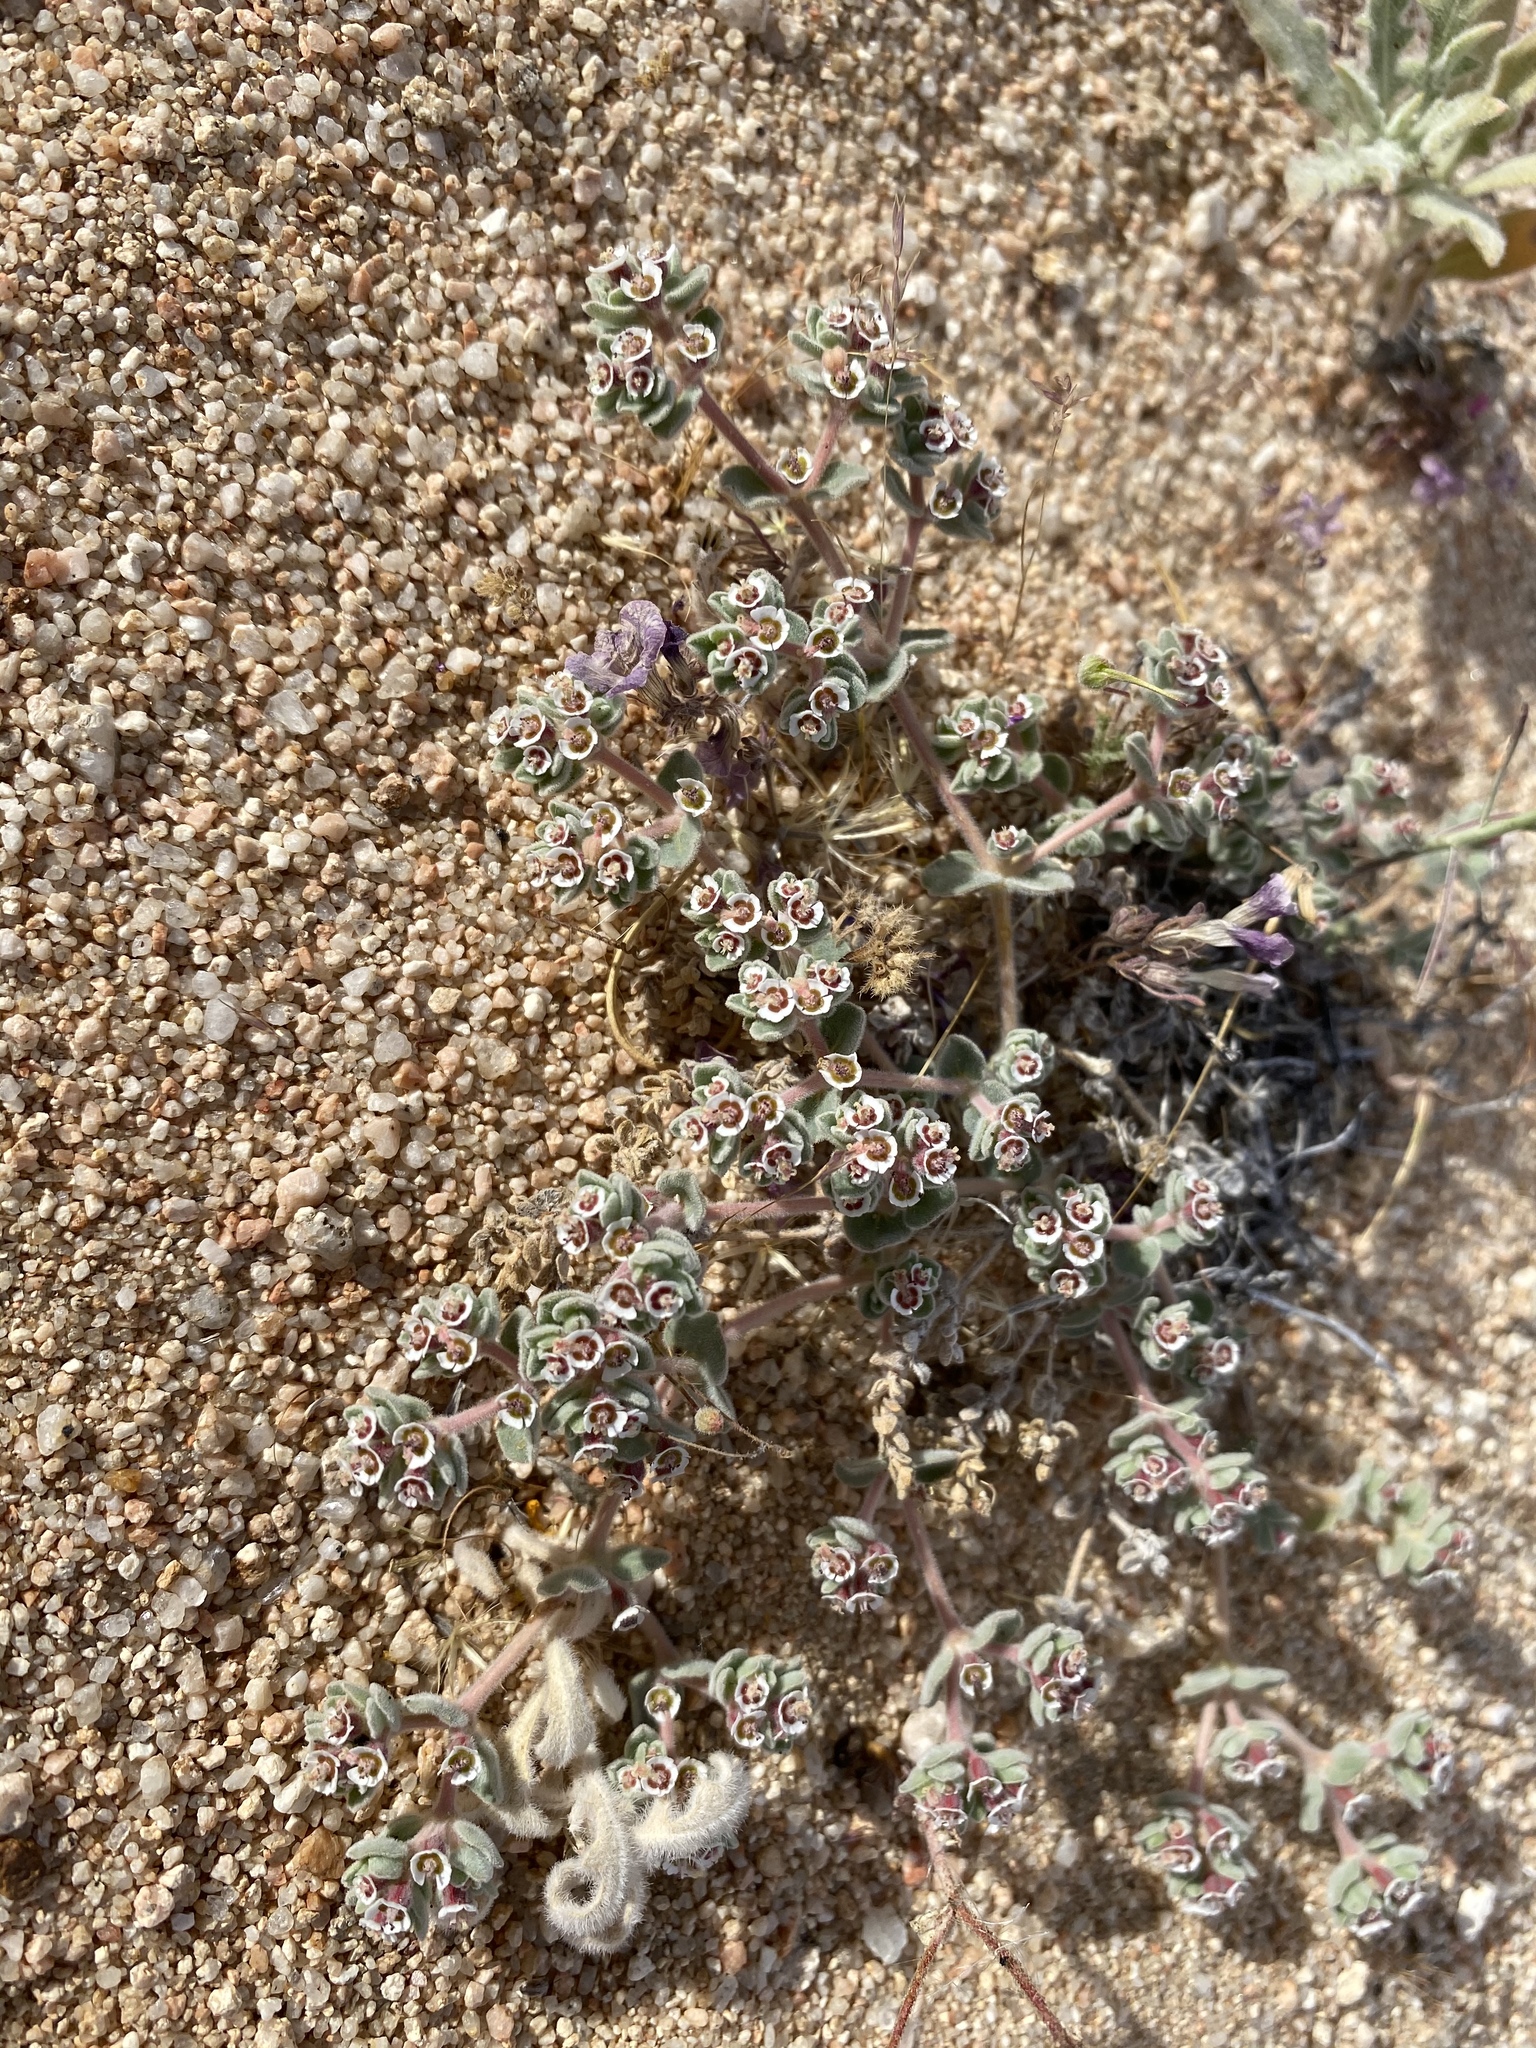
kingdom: Plantae
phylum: Tracheophyta
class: Magnoliopsida
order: Malpighiales
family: Euphorbiaceae
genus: Euphorbia
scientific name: Euphorbia vallis-mortae
